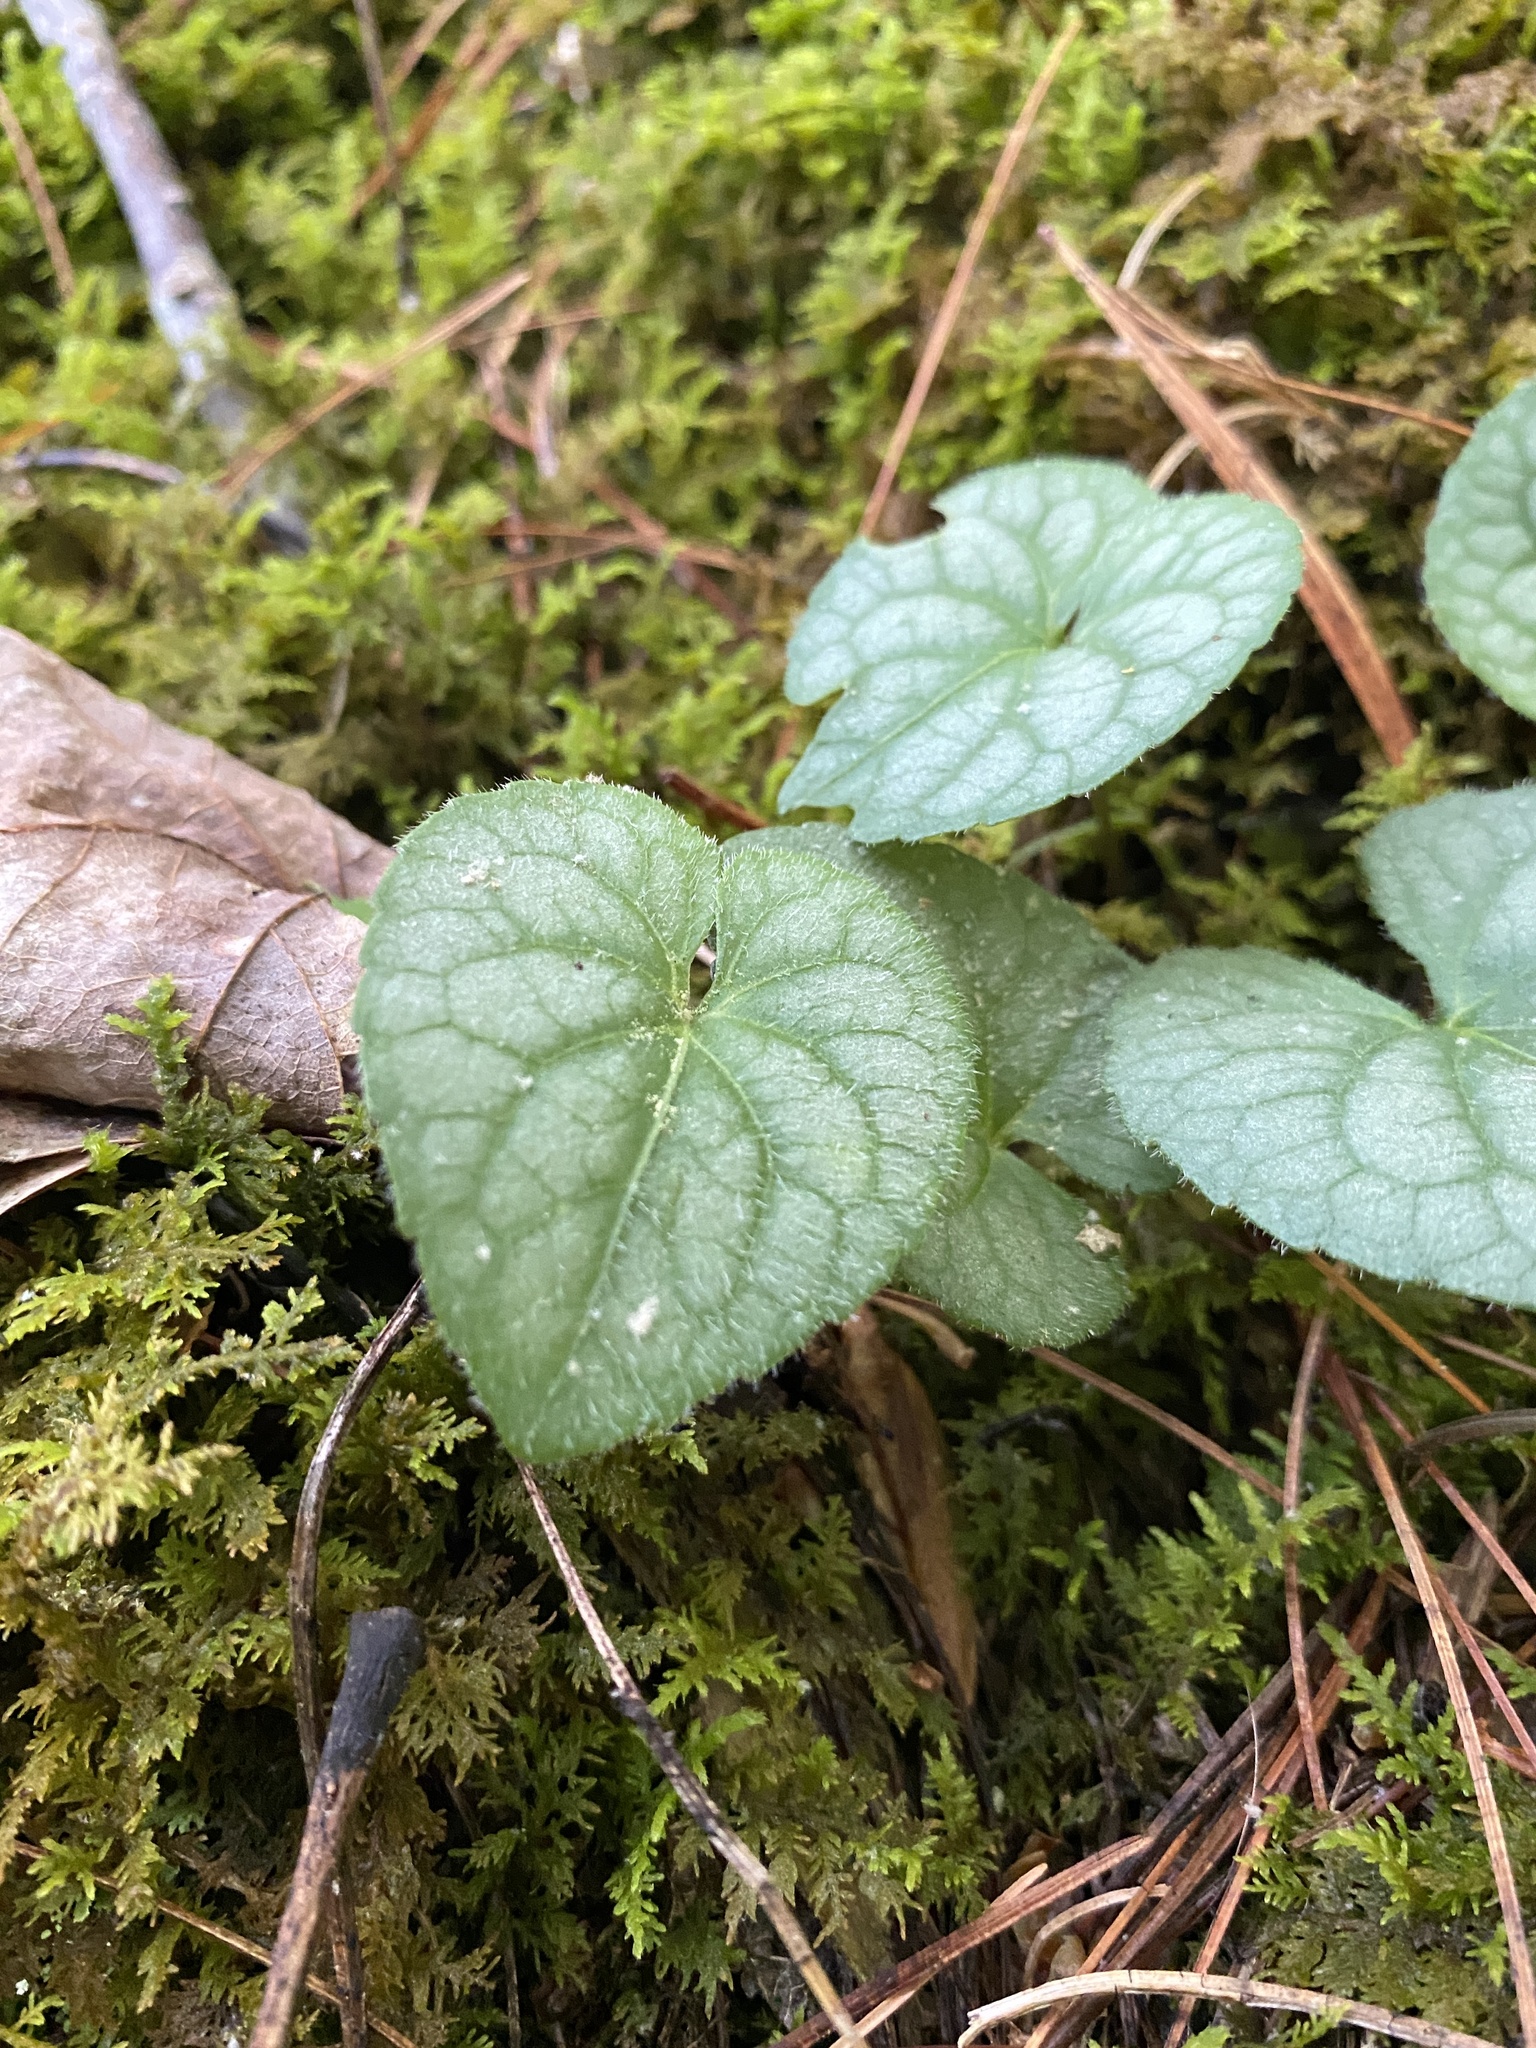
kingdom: Plantae
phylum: Tracheophyta
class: Magnoliopsida
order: Malpighiales
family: Violaceae
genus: Viola
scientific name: Viola hirsutula
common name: Southern wood violet
